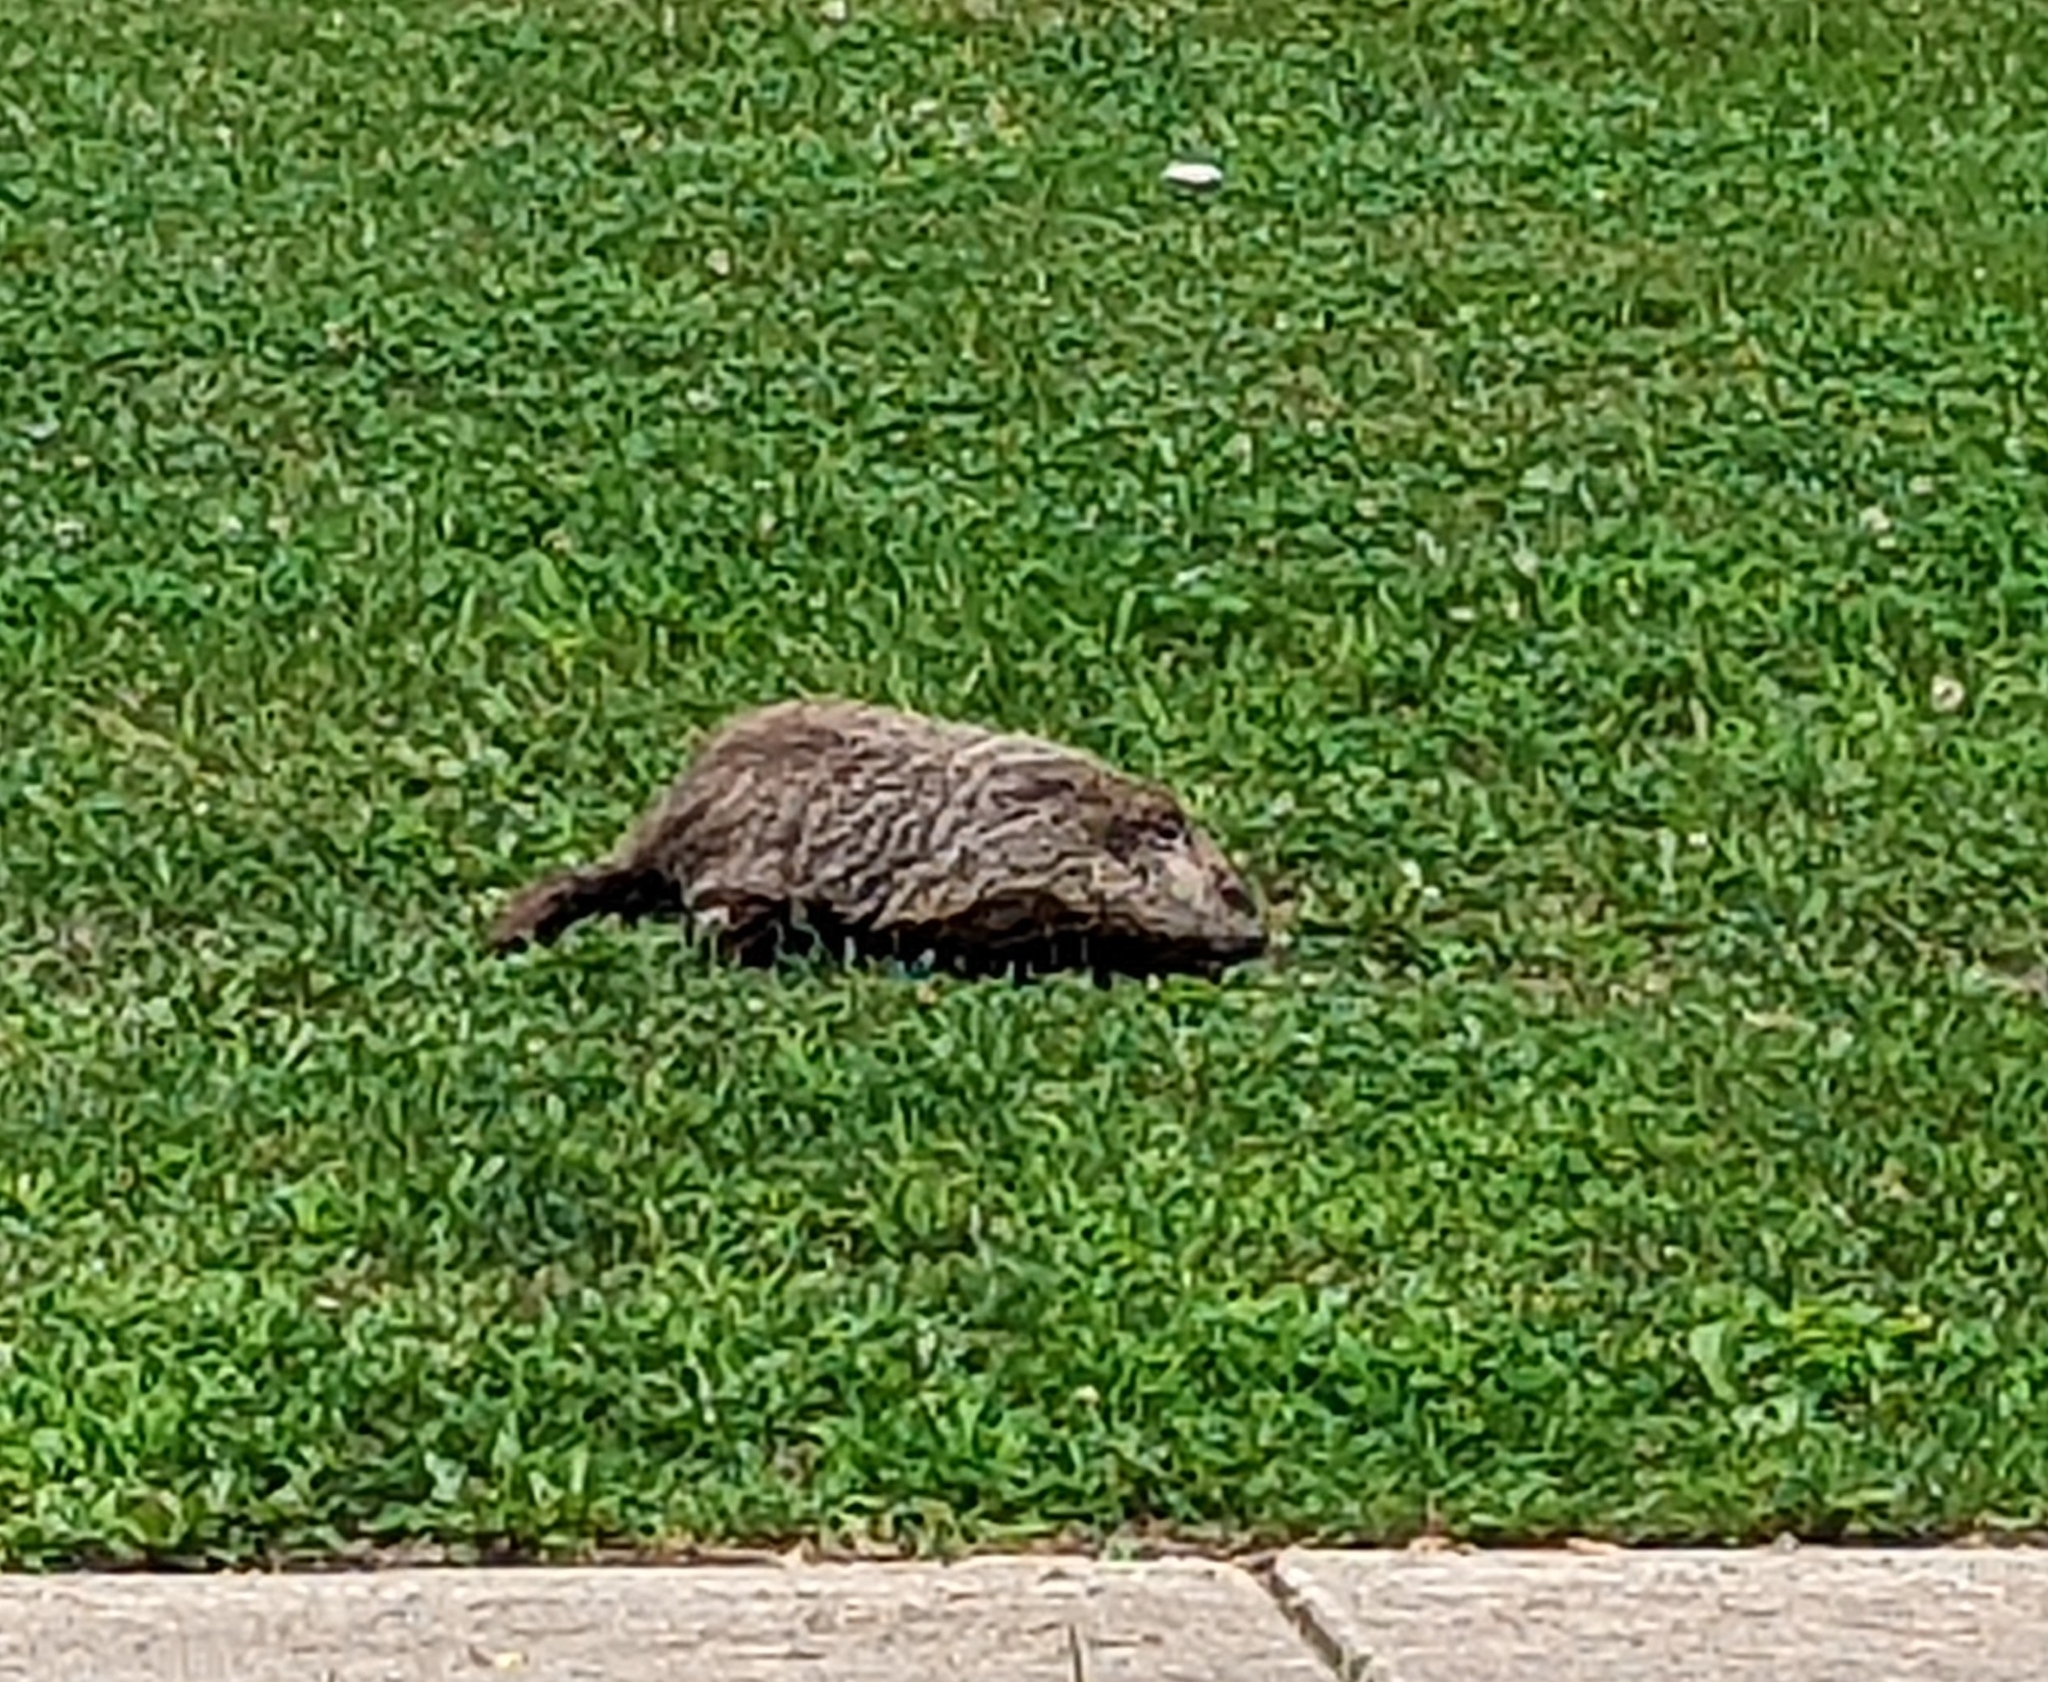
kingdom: Animalia
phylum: Chordata
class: Mammalia
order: Rodentia
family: Sciuridae
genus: Marmota
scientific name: Marmota monax
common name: Groundhog
